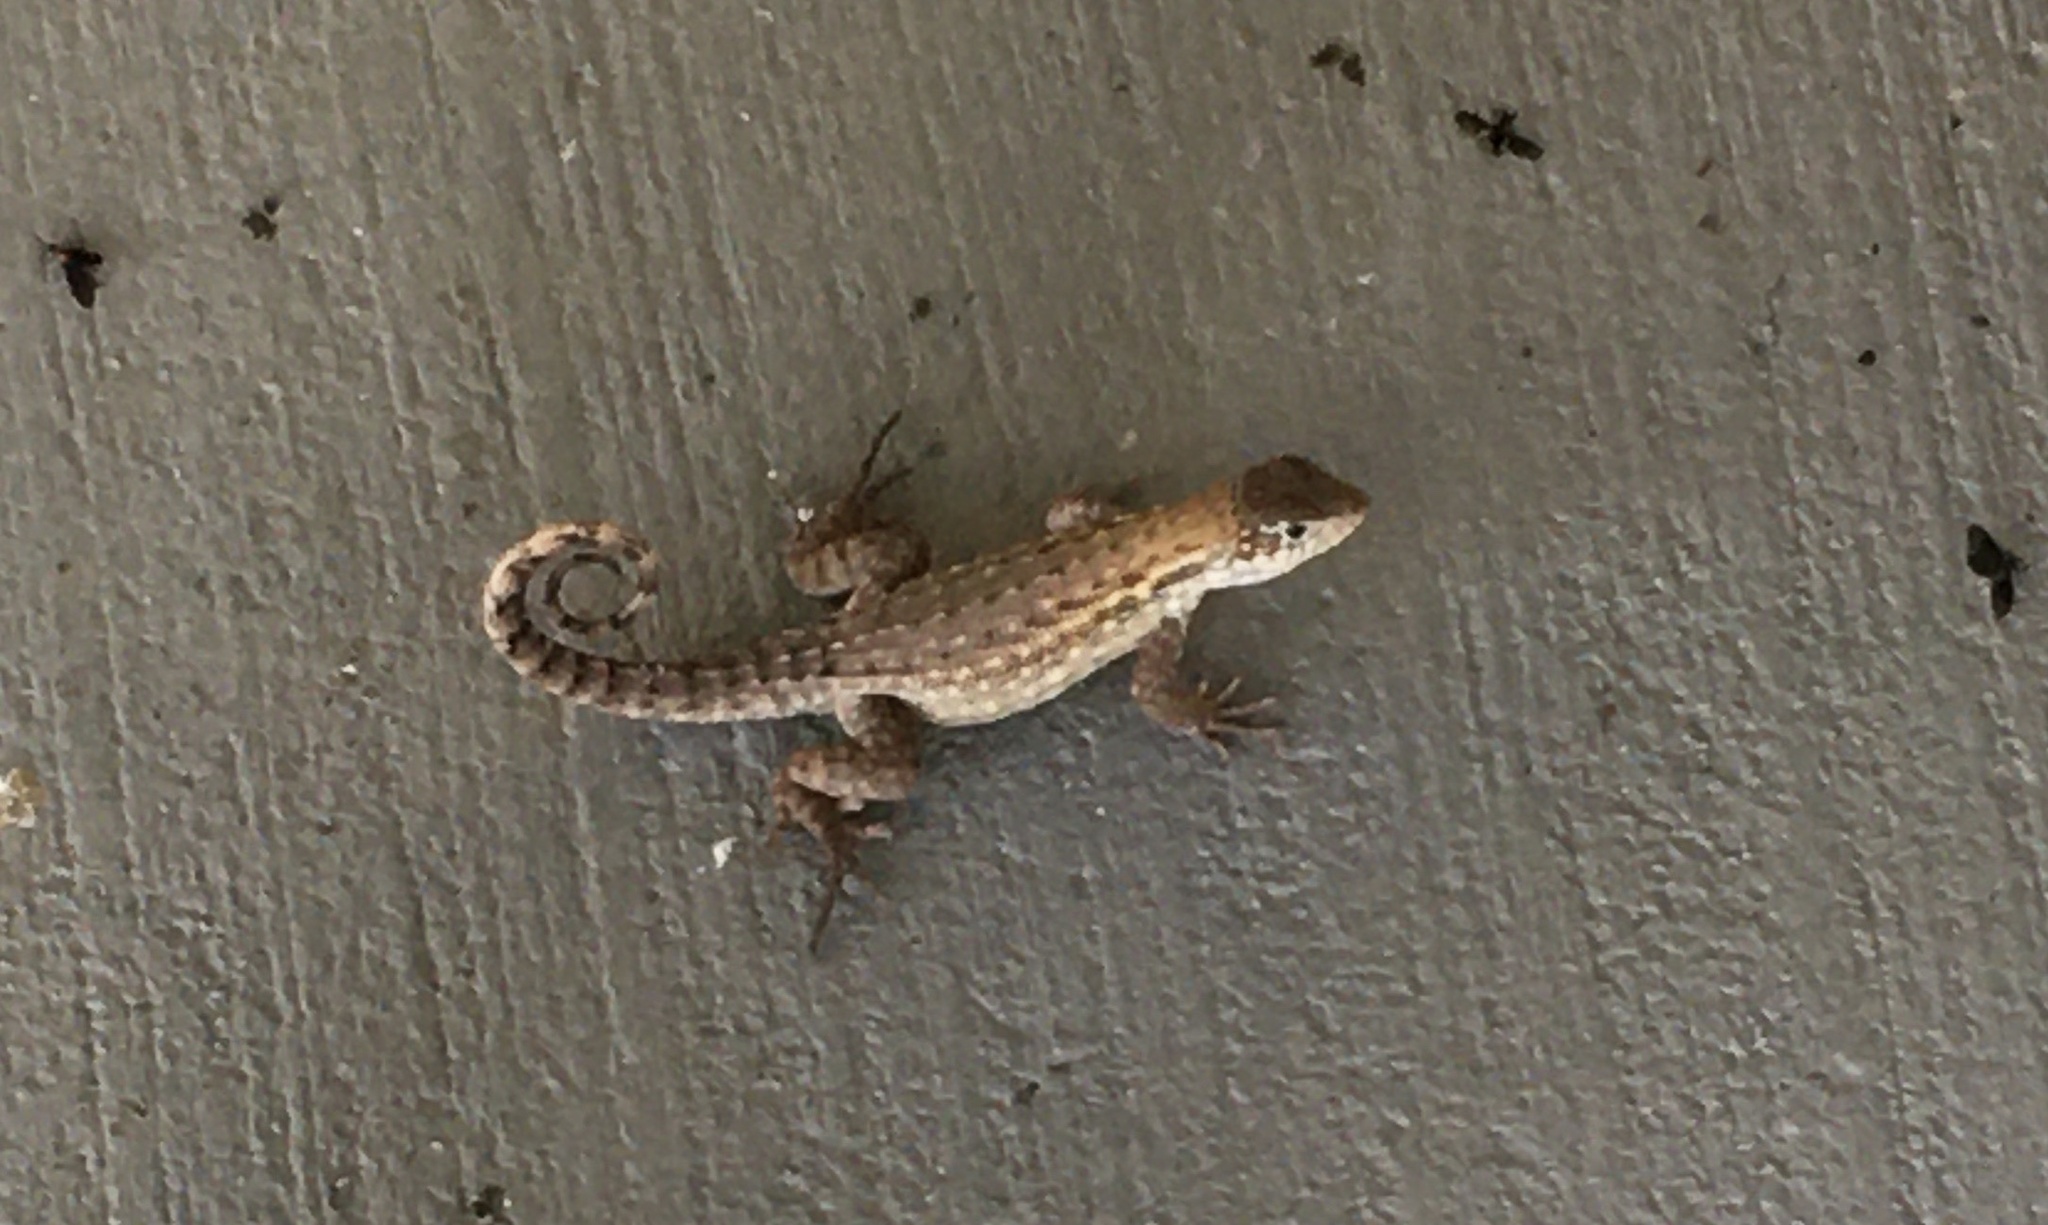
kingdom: Animalia
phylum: Chordata
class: Squamata
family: Leiocephalidae
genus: Leiocephalus
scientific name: Leiocephalus carinatus
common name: Northern curly-tailed lizard
